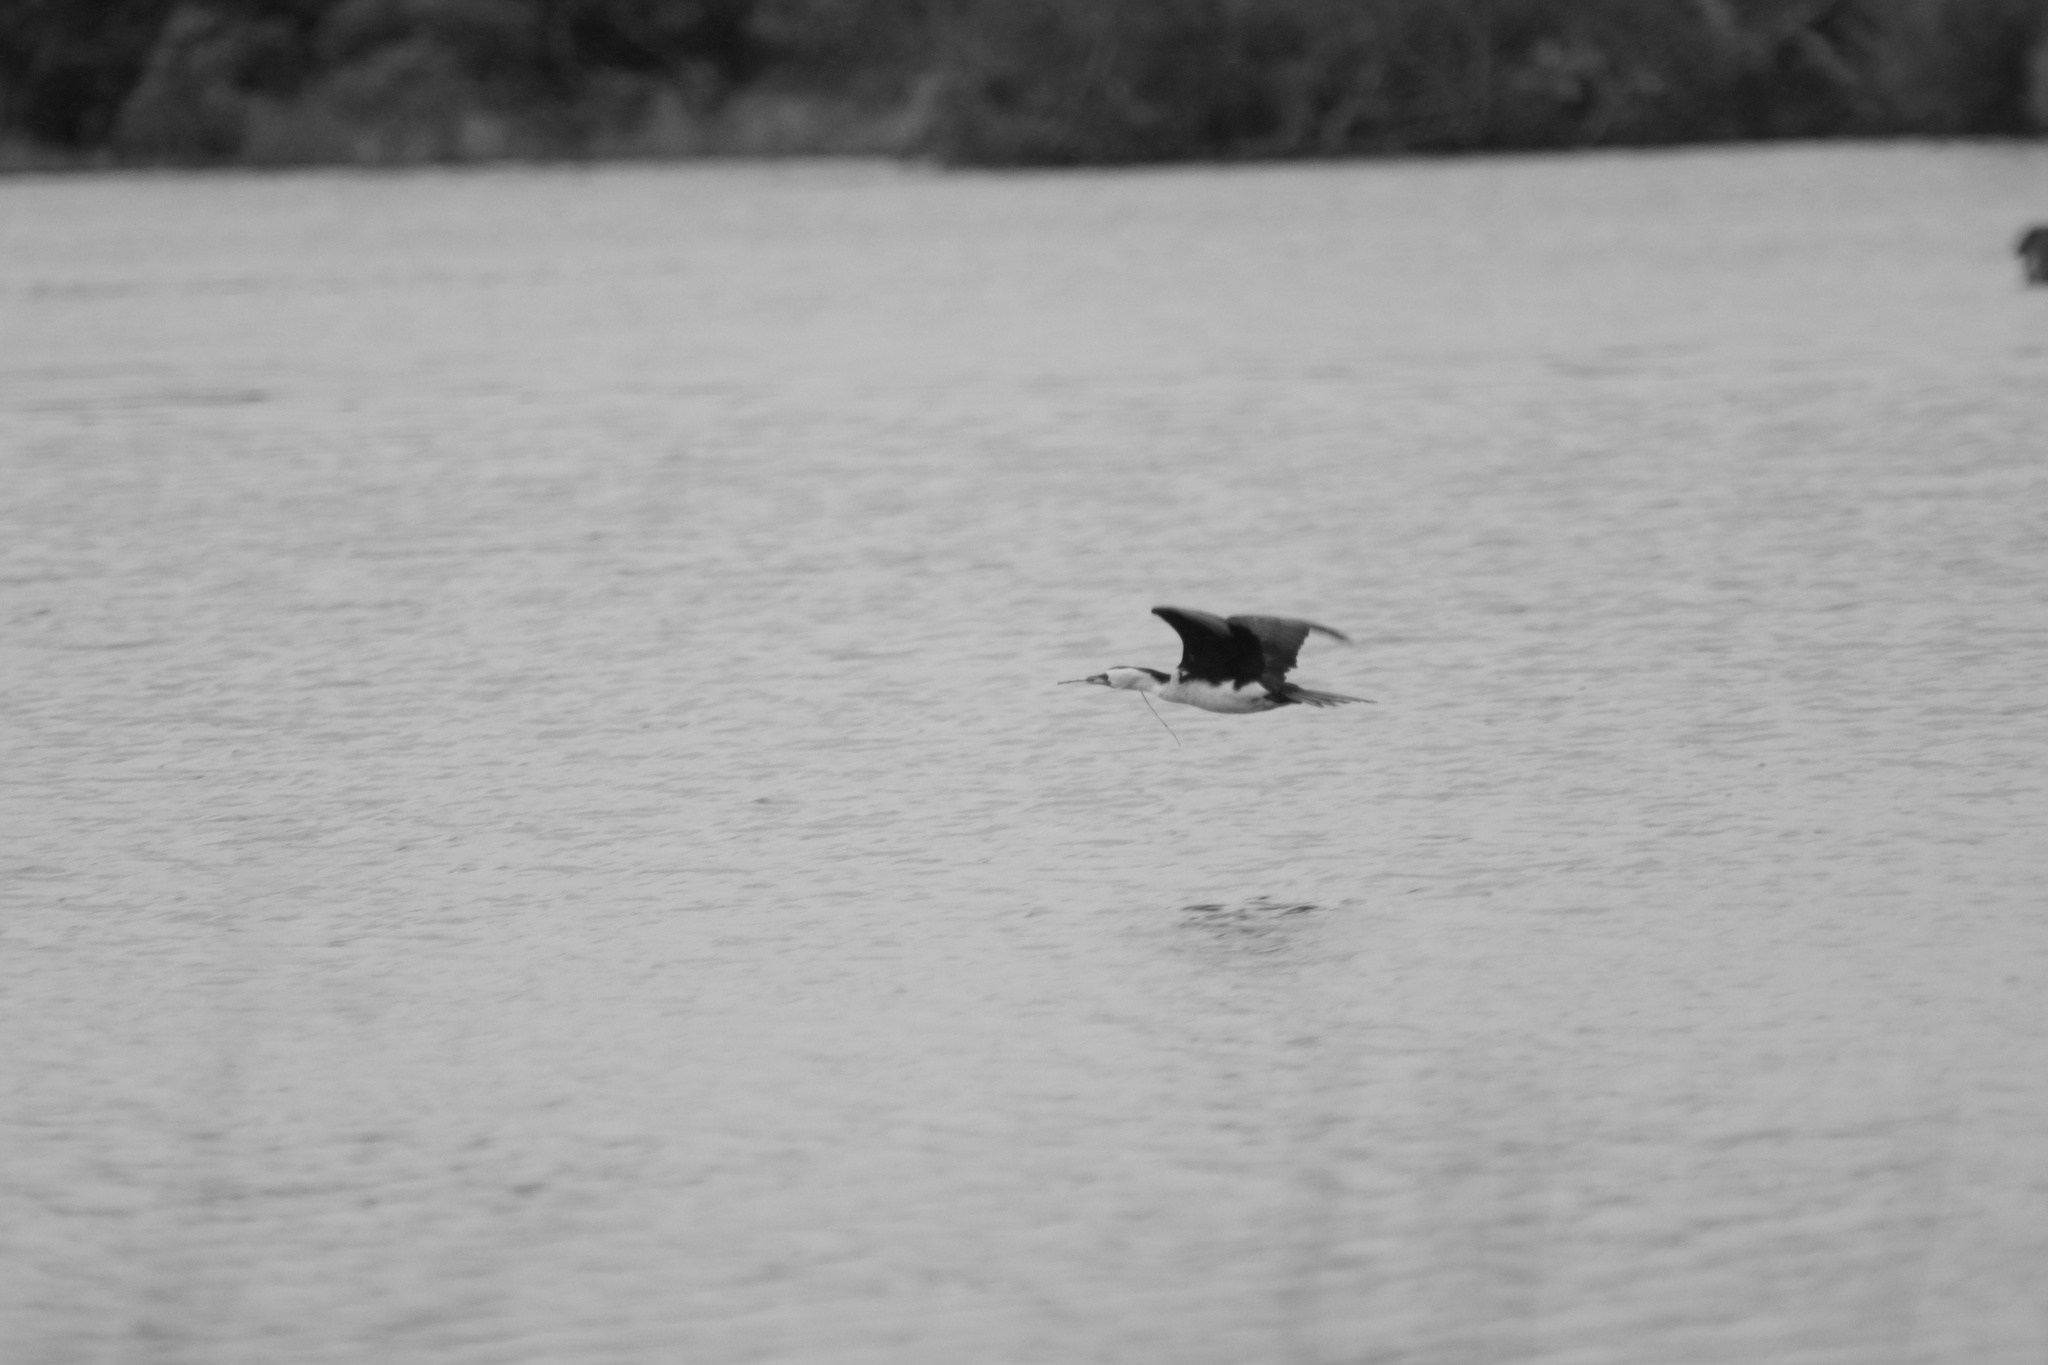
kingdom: Animalia
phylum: Chordata
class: Aves
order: Suliformes
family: Phalacrocoracidae
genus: Microcarbo
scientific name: Microcarbo melanoleucos
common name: Little pied cormorant
